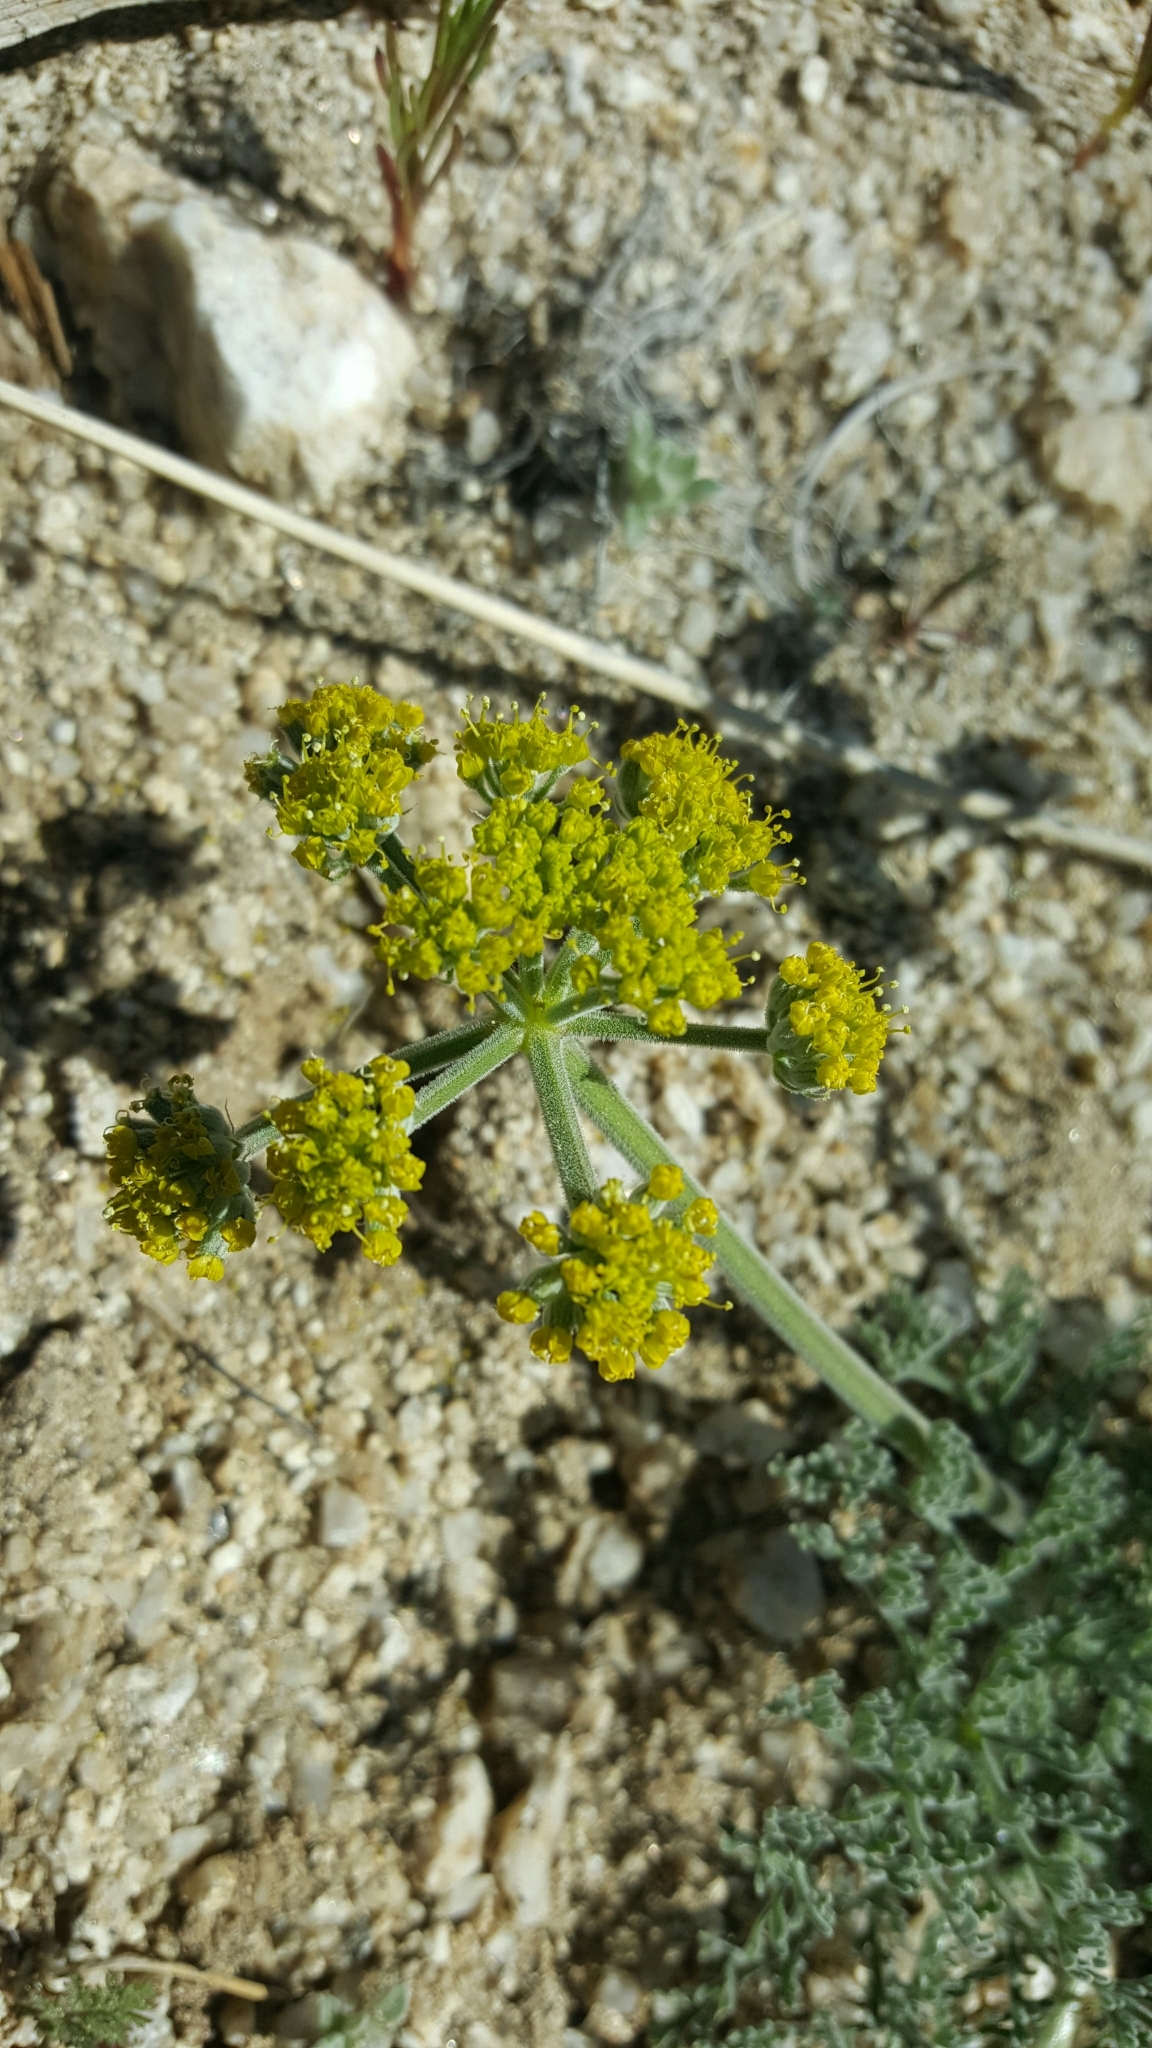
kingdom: Plantae
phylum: Tracheophyta
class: Magnoliopsida
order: Apiales
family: Apiaceae
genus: Lomatium
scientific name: Lomatium mohavense
